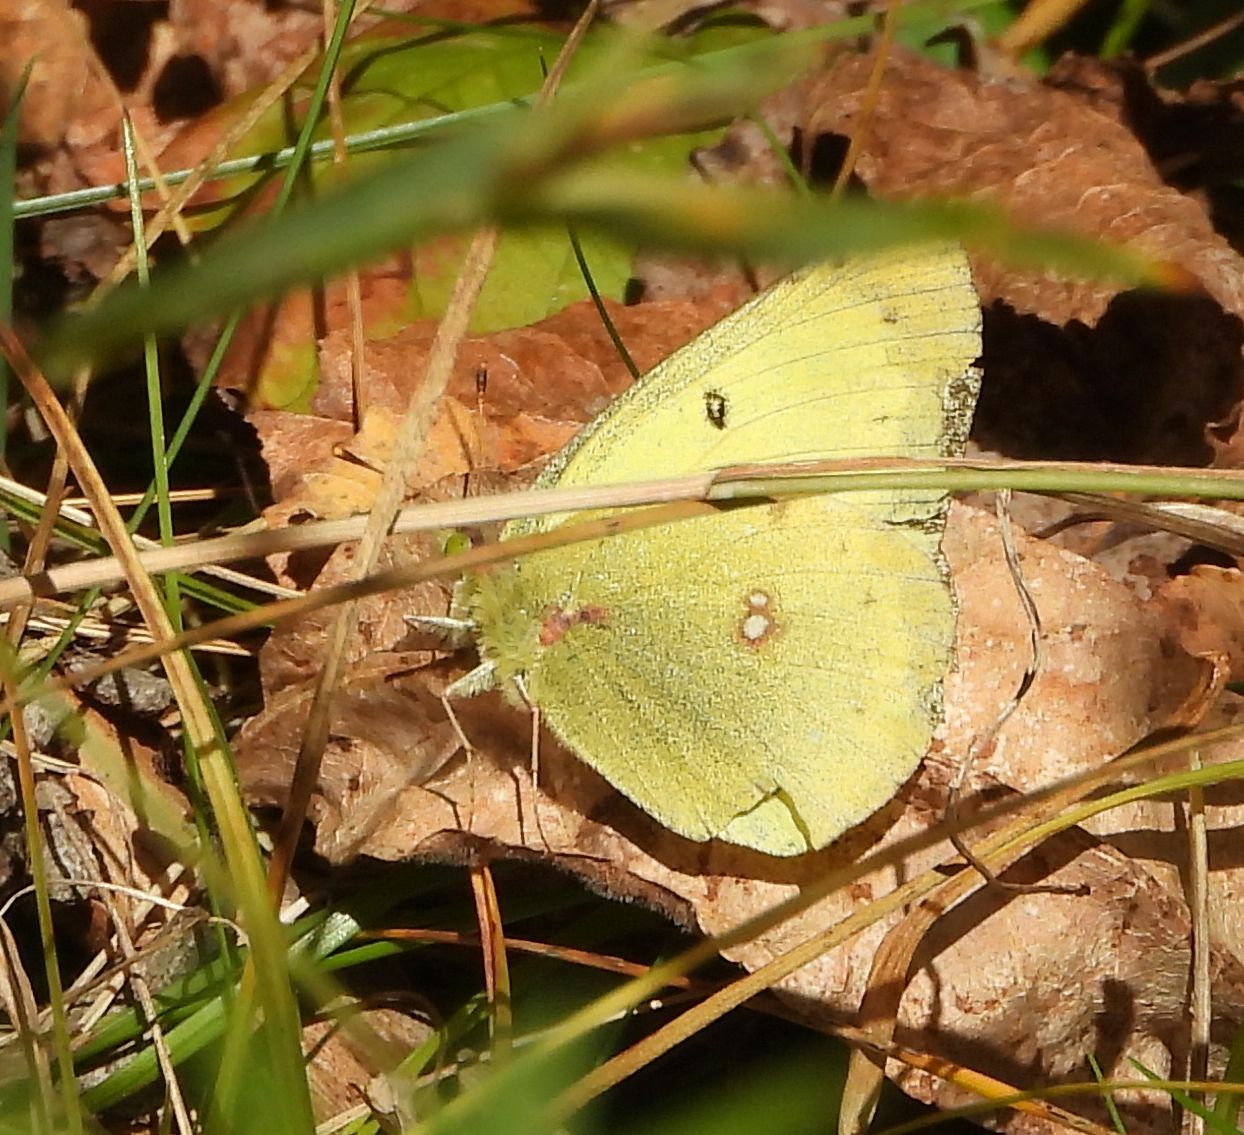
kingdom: Animalia
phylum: Arthropoda
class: Insecta
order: Lepidoptera
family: Pieridae
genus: Colias
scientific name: Colias philodice
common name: Clouded sulphur
